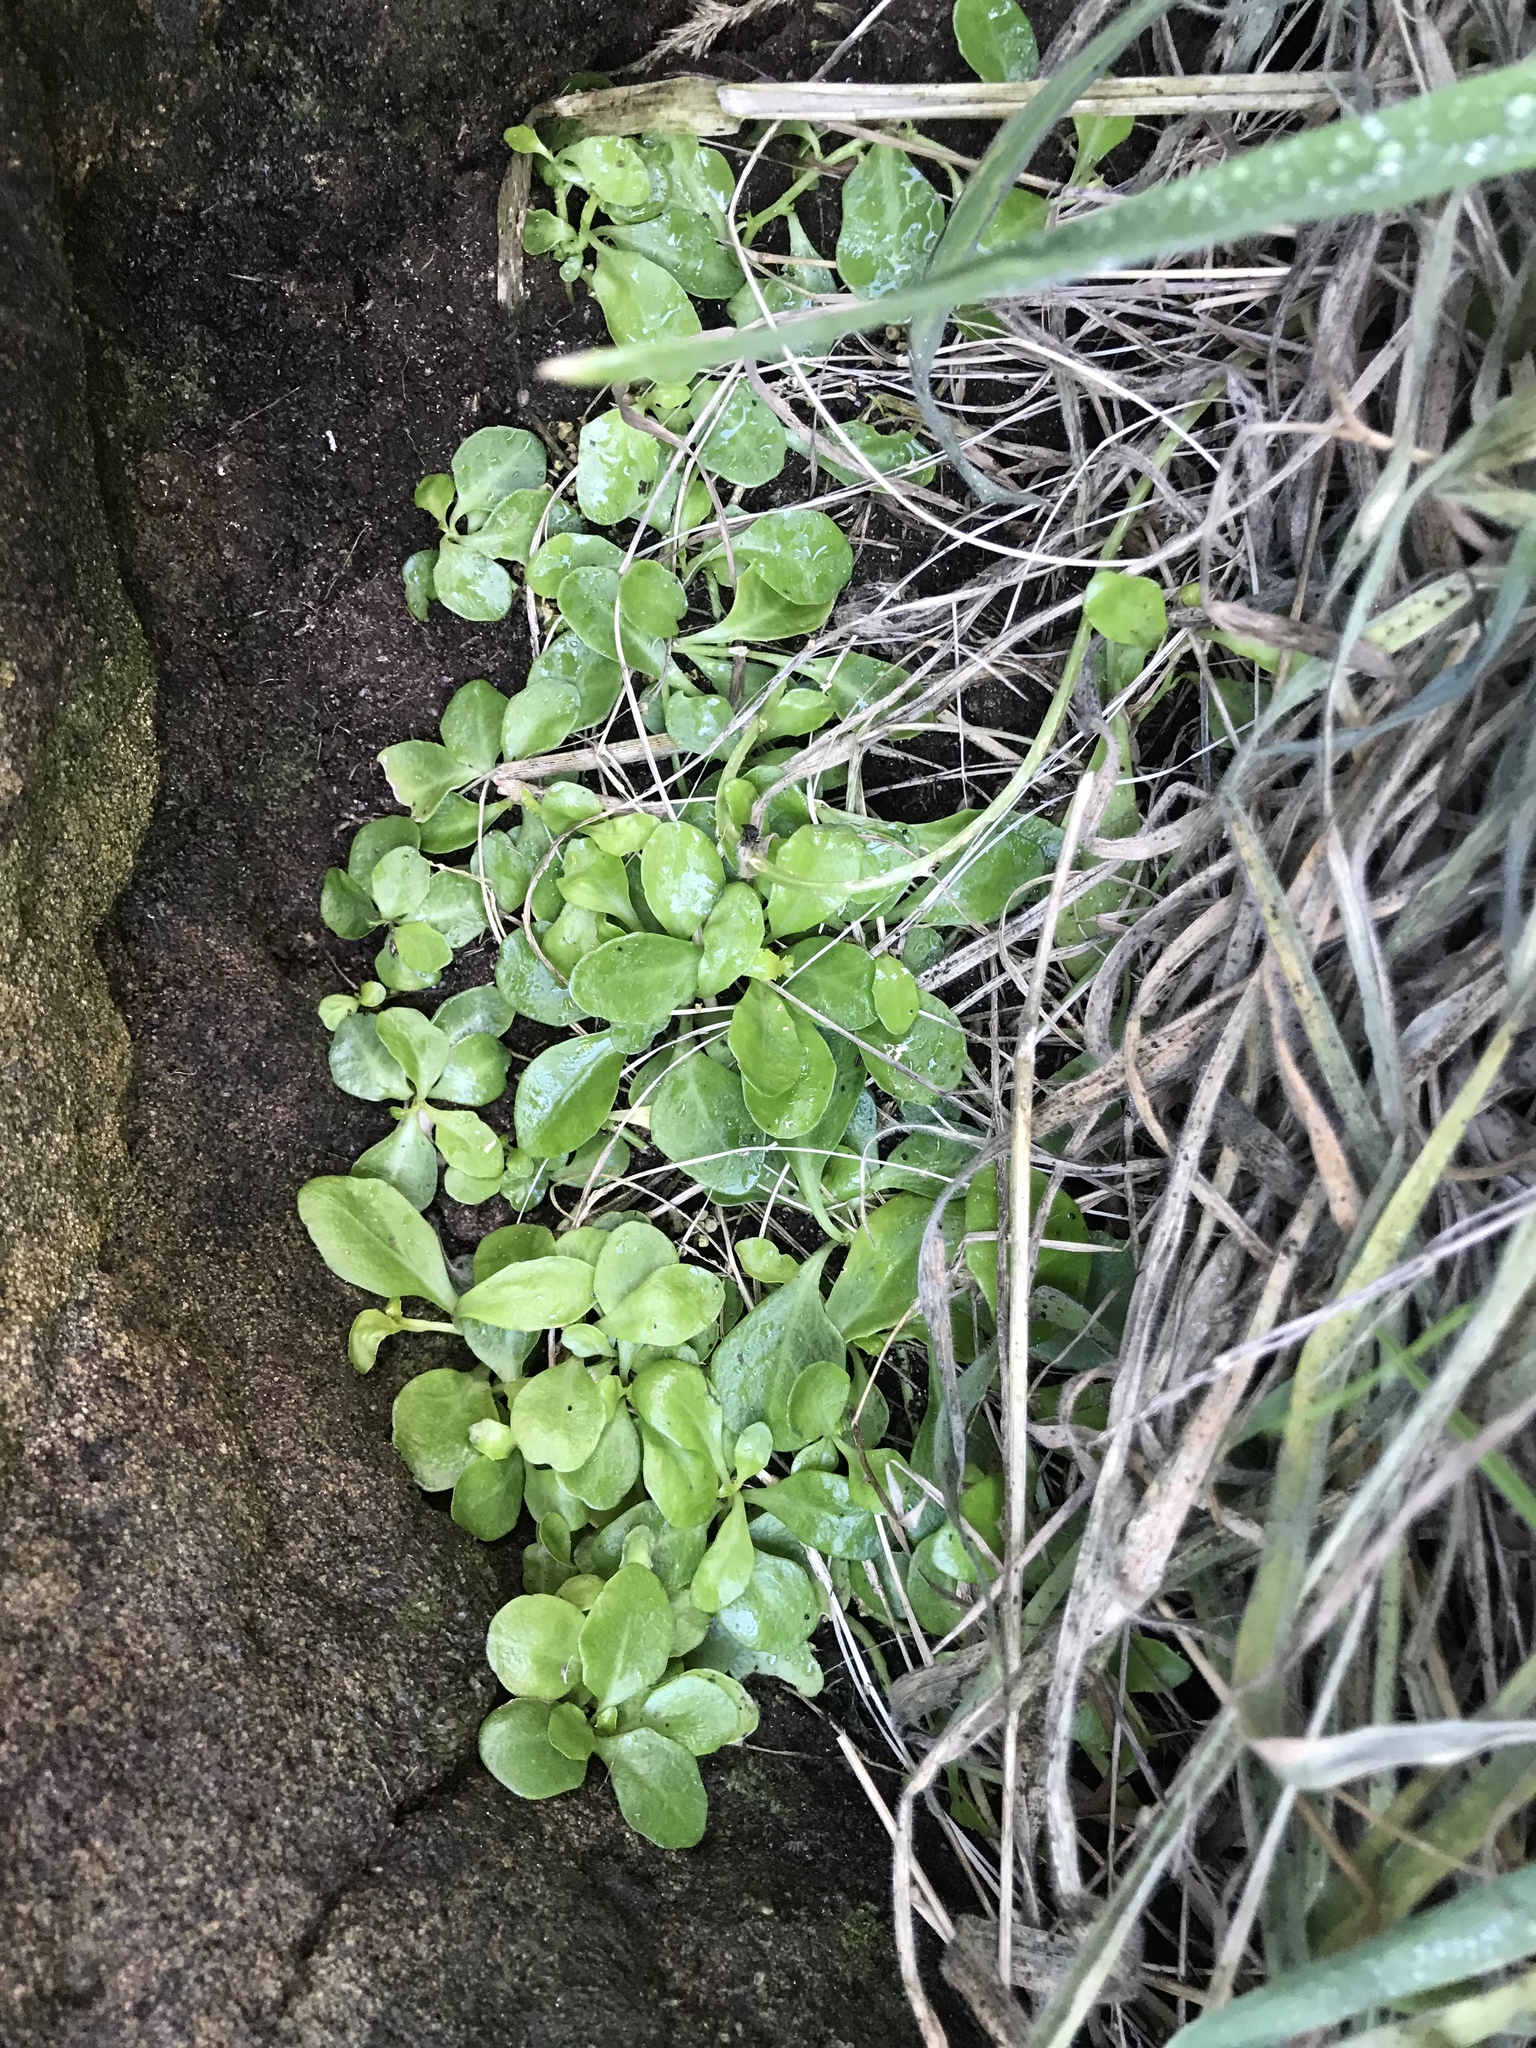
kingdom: Plantae
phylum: Tracheophyta
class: Magnoliopsida
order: Asterales
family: Campanulaceae
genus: Lobelia
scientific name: Lobelia anceps
